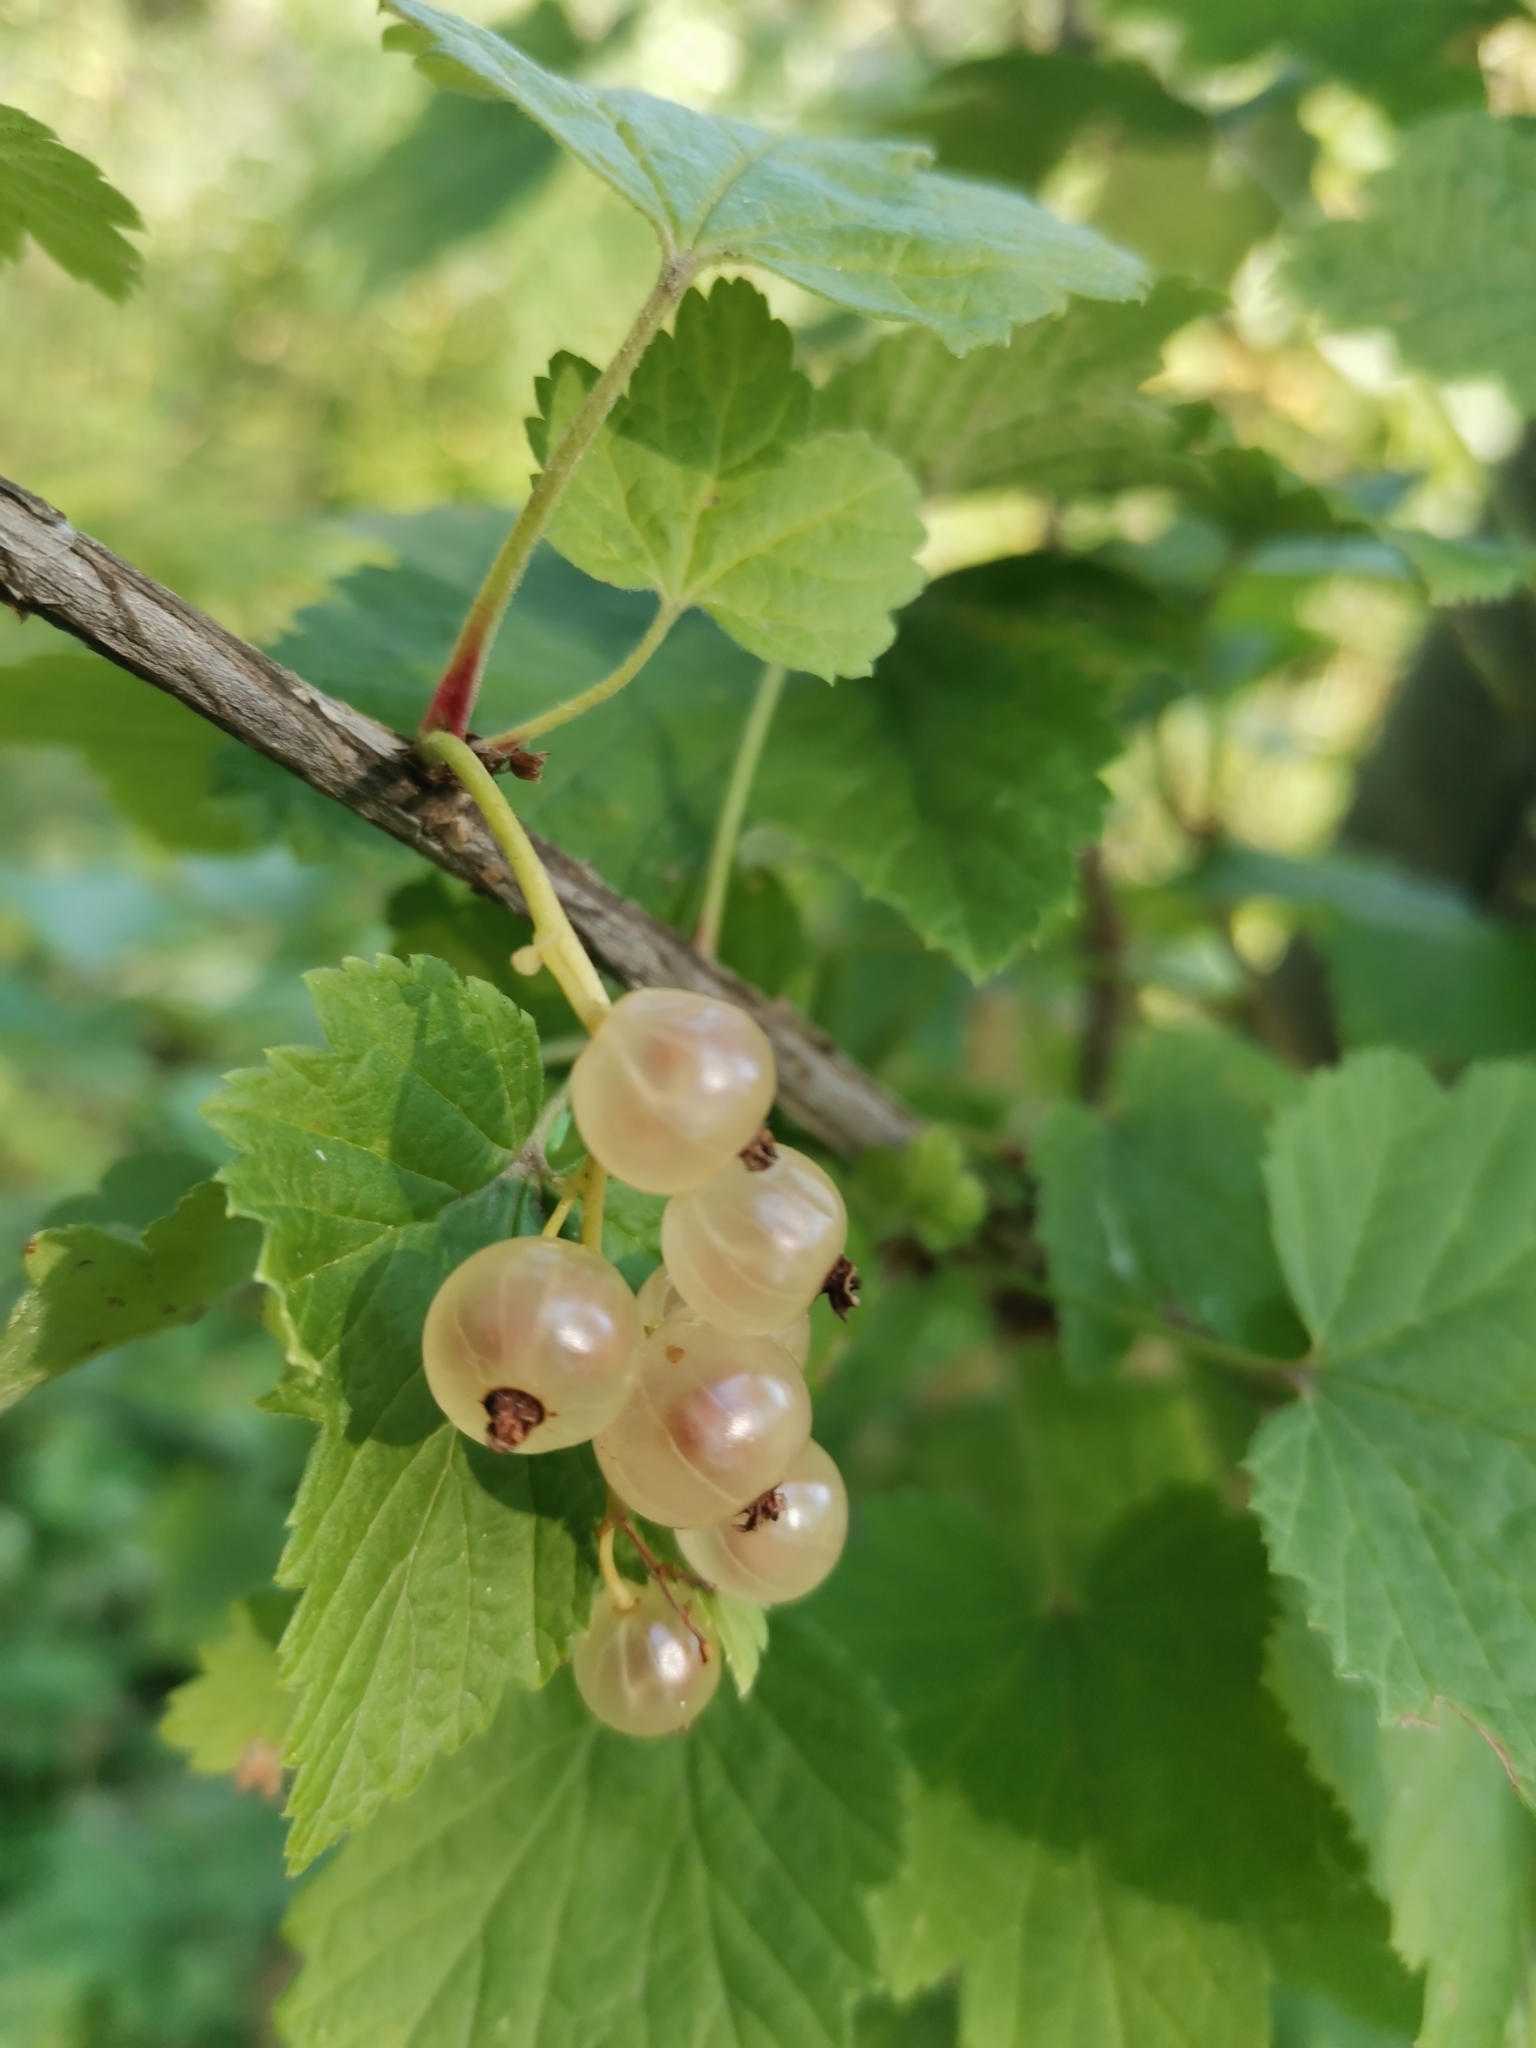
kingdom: Plantae
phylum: Tracheophyta
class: Magnoliopsida
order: Saxifragales
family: Grossulariaceae
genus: Ribes
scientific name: Ribes rubrum
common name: Red currant
